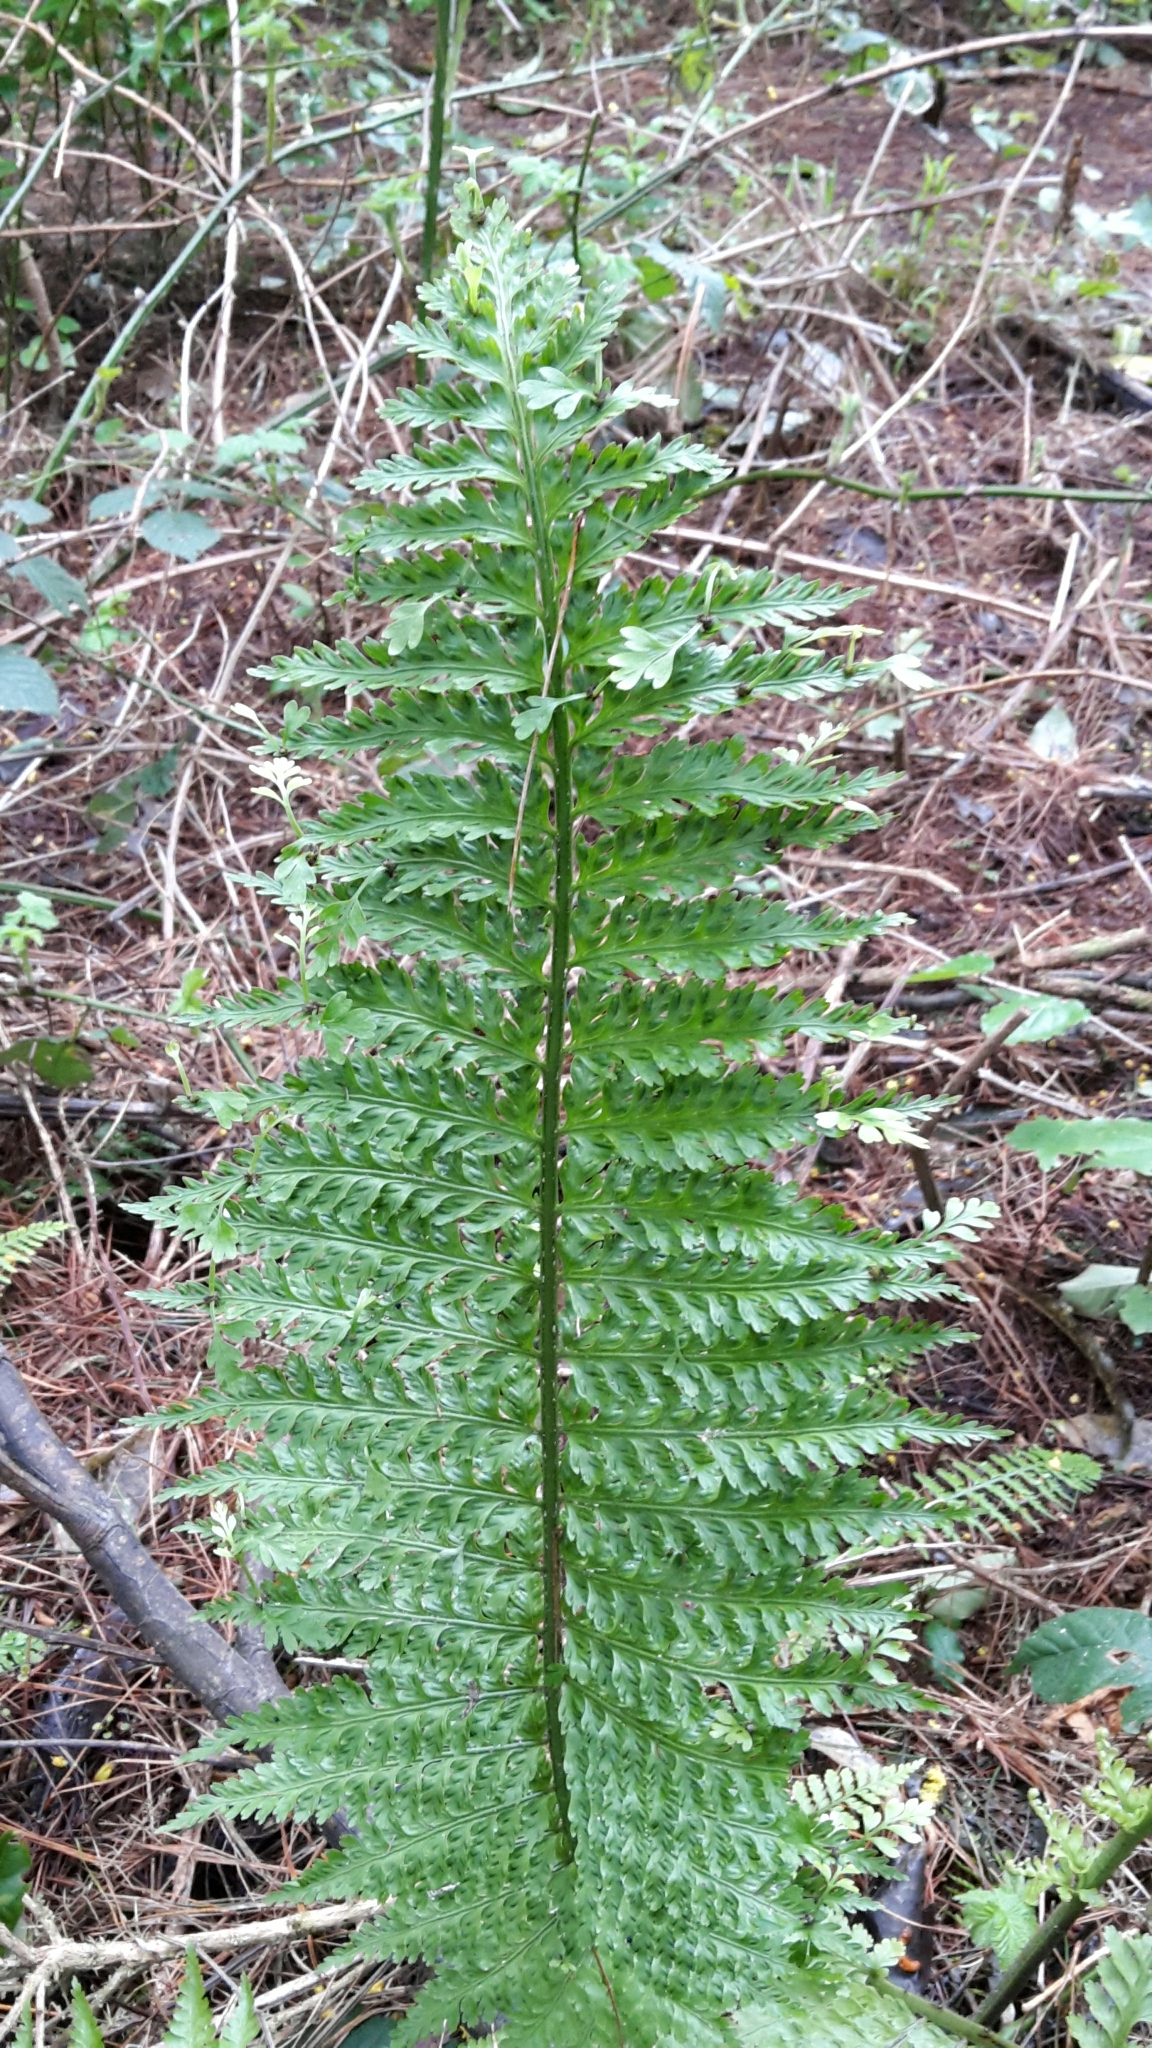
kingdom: Plantae
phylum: Tracheophyta
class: Polypodiopsida
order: Polypodiales
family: Aspleniaceae
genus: Asplenium
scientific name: Asplenium bulbiferum
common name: Mother fern
